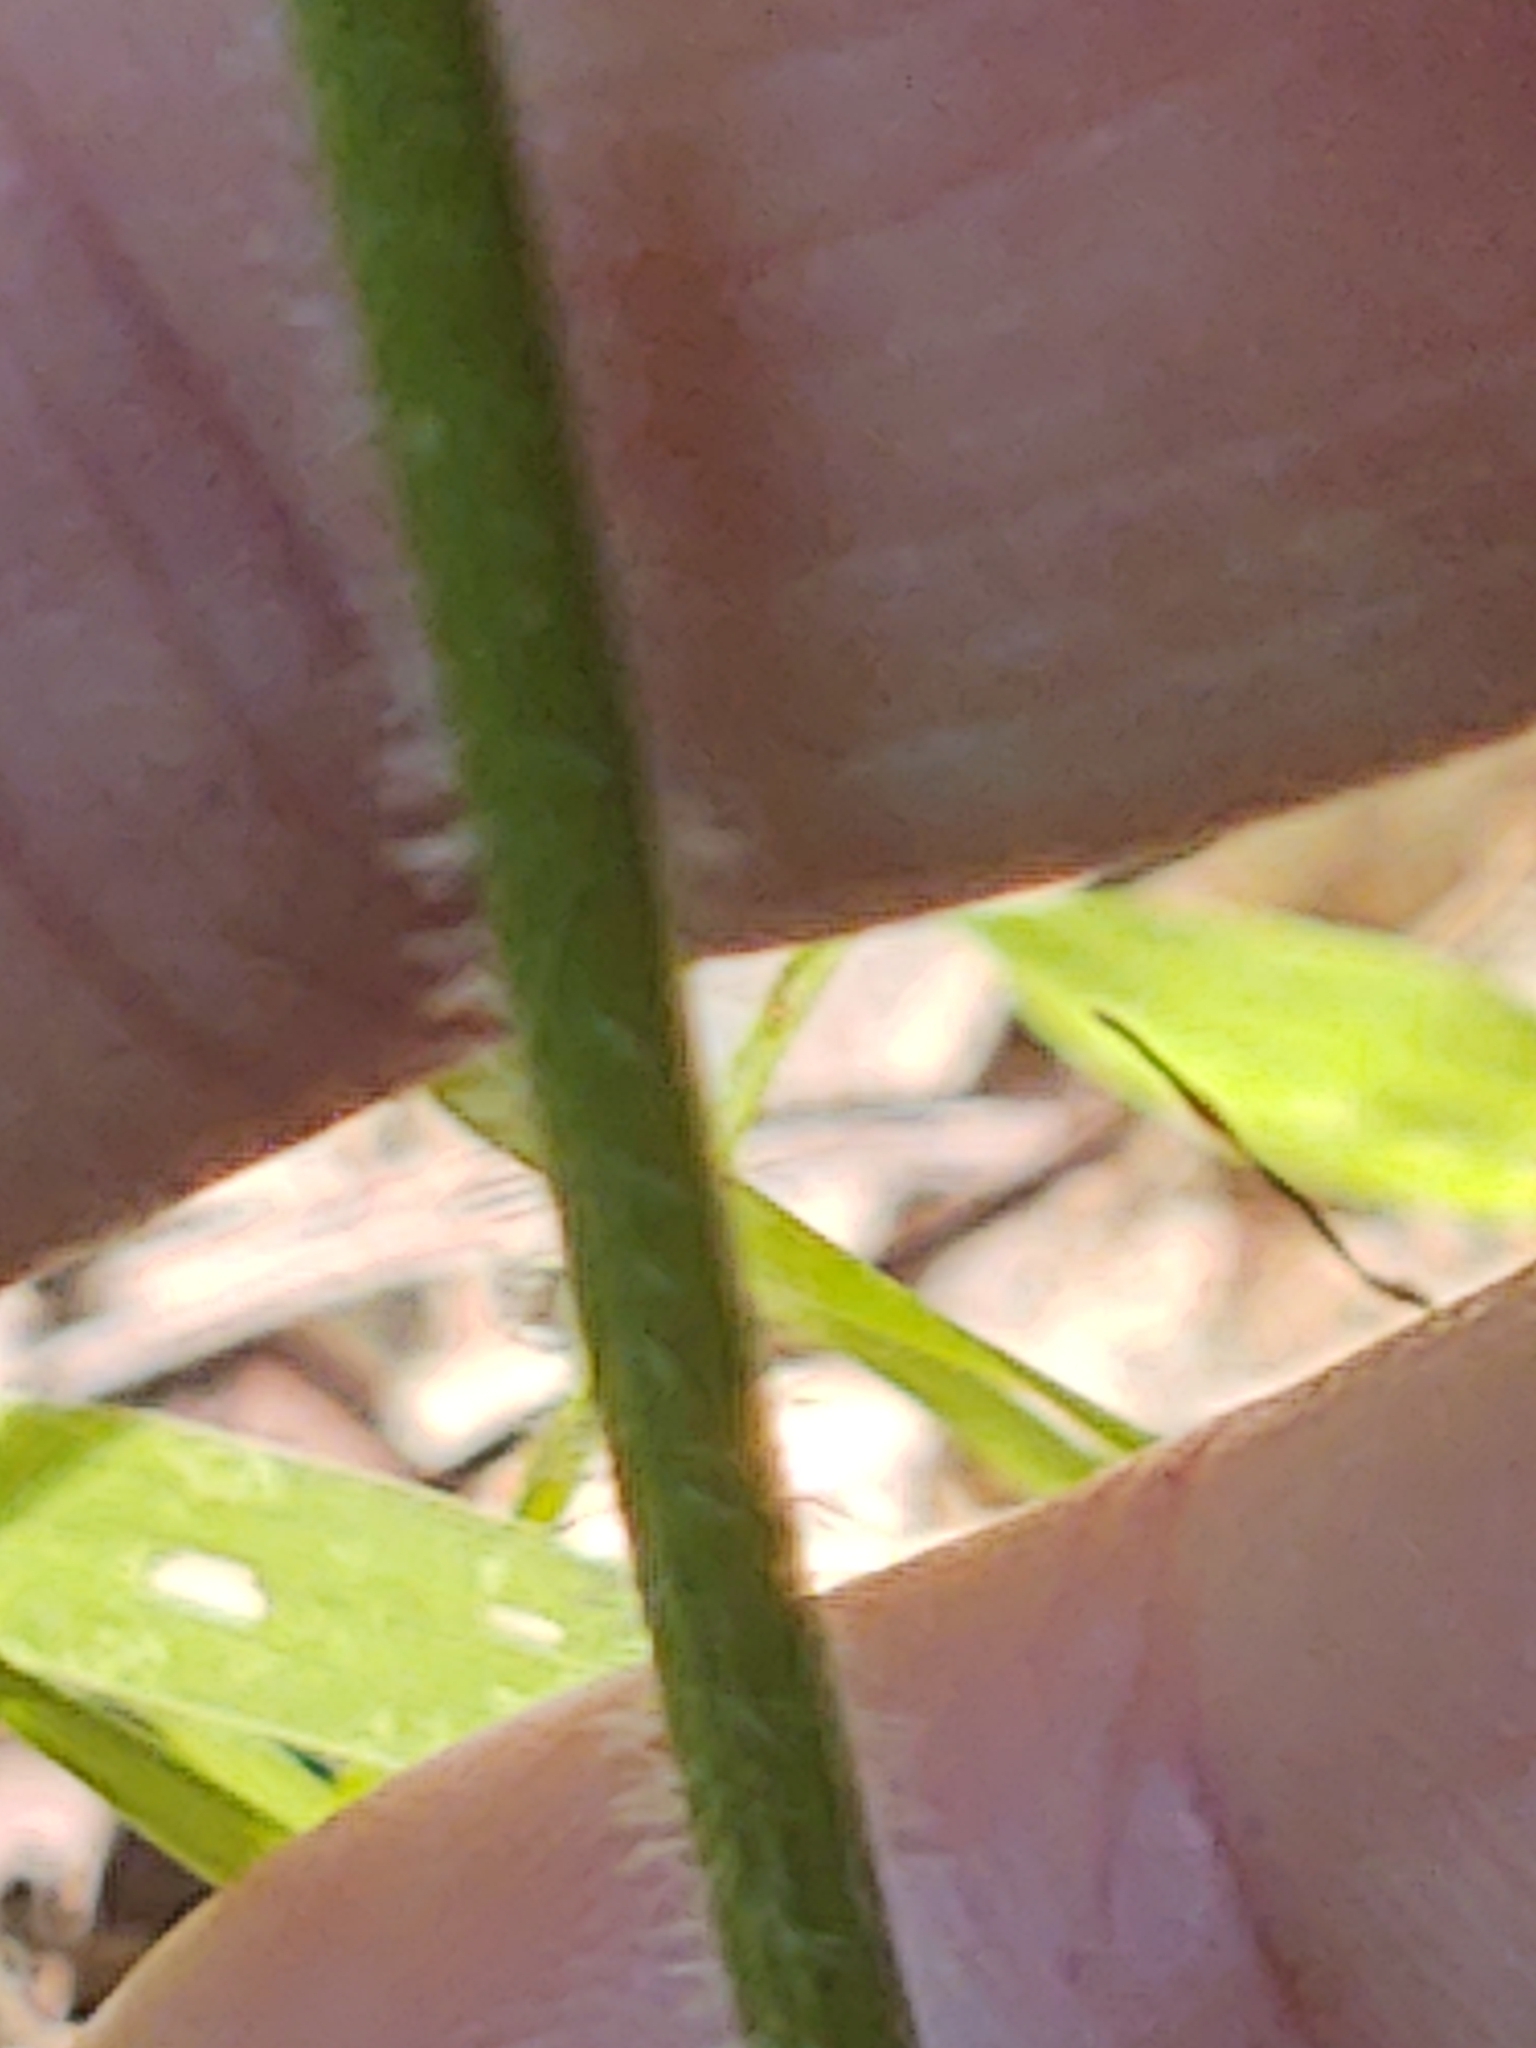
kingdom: Plantae
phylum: Tracheophyta
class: Magnoliopsida
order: Malpighiales
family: Violaceae
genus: Viola
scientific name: Viola palmata
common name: Early blue violet
